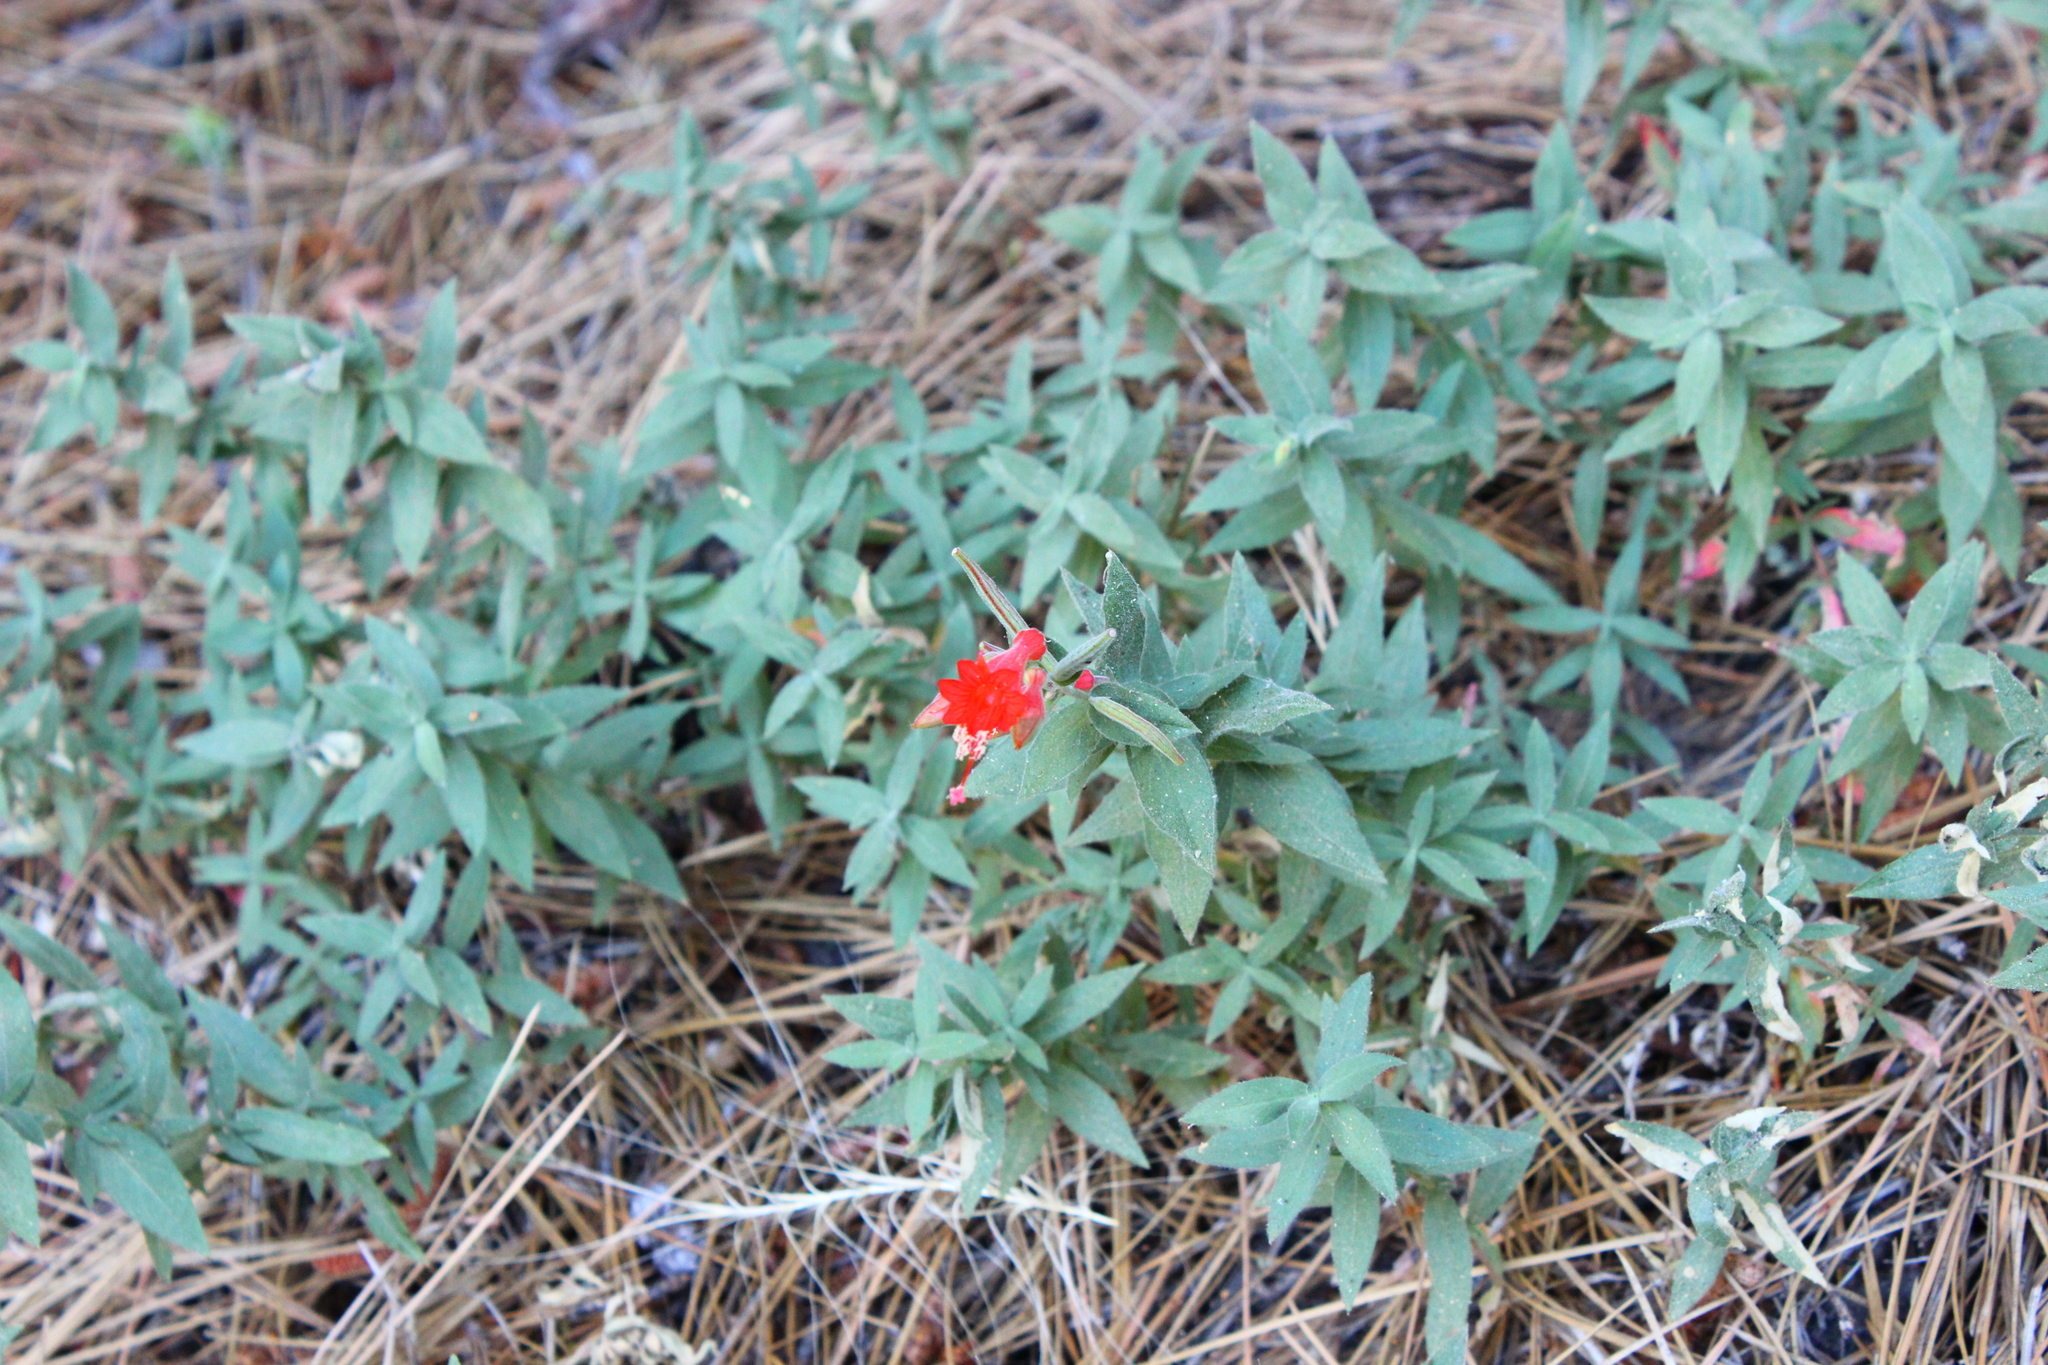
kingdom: Plantae
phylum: Tracheophyta
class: Magnoliopsida
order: Myrtales
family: Onagraceae
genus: Epilobium
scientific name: Epilobium canum
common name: California-fuchsia
